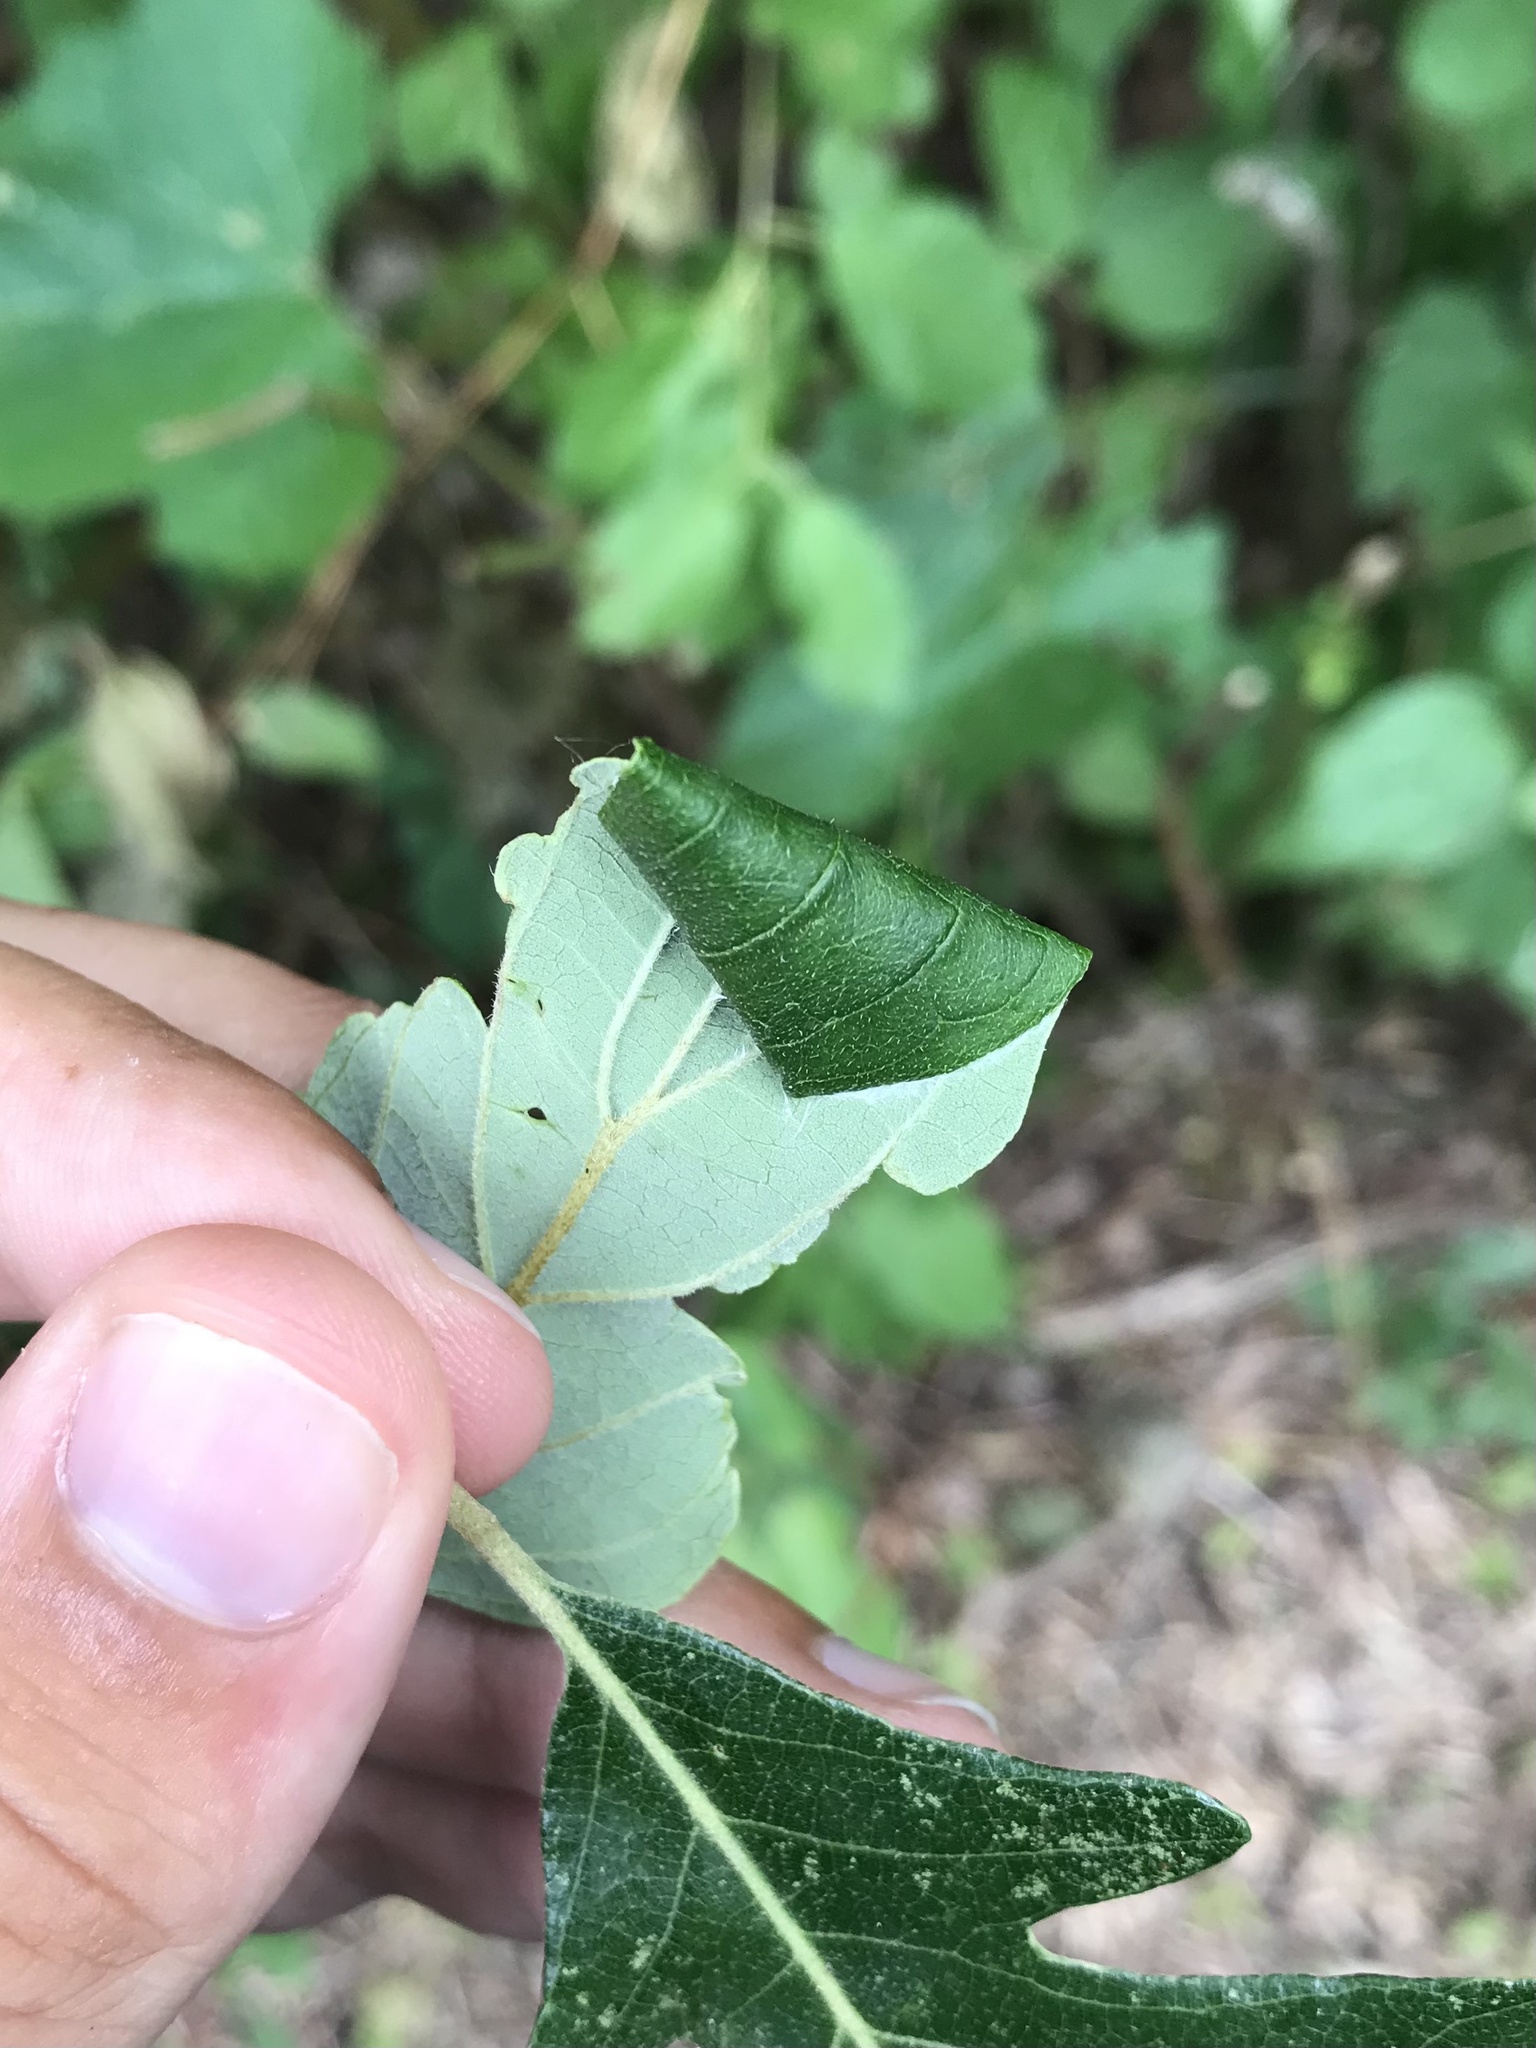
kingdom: Animalia
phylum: Arthropoda
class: Insecta
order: Lepidoptera
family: Gracillariidae
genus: Caloptilia
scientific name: Caloptilia burgessiella
